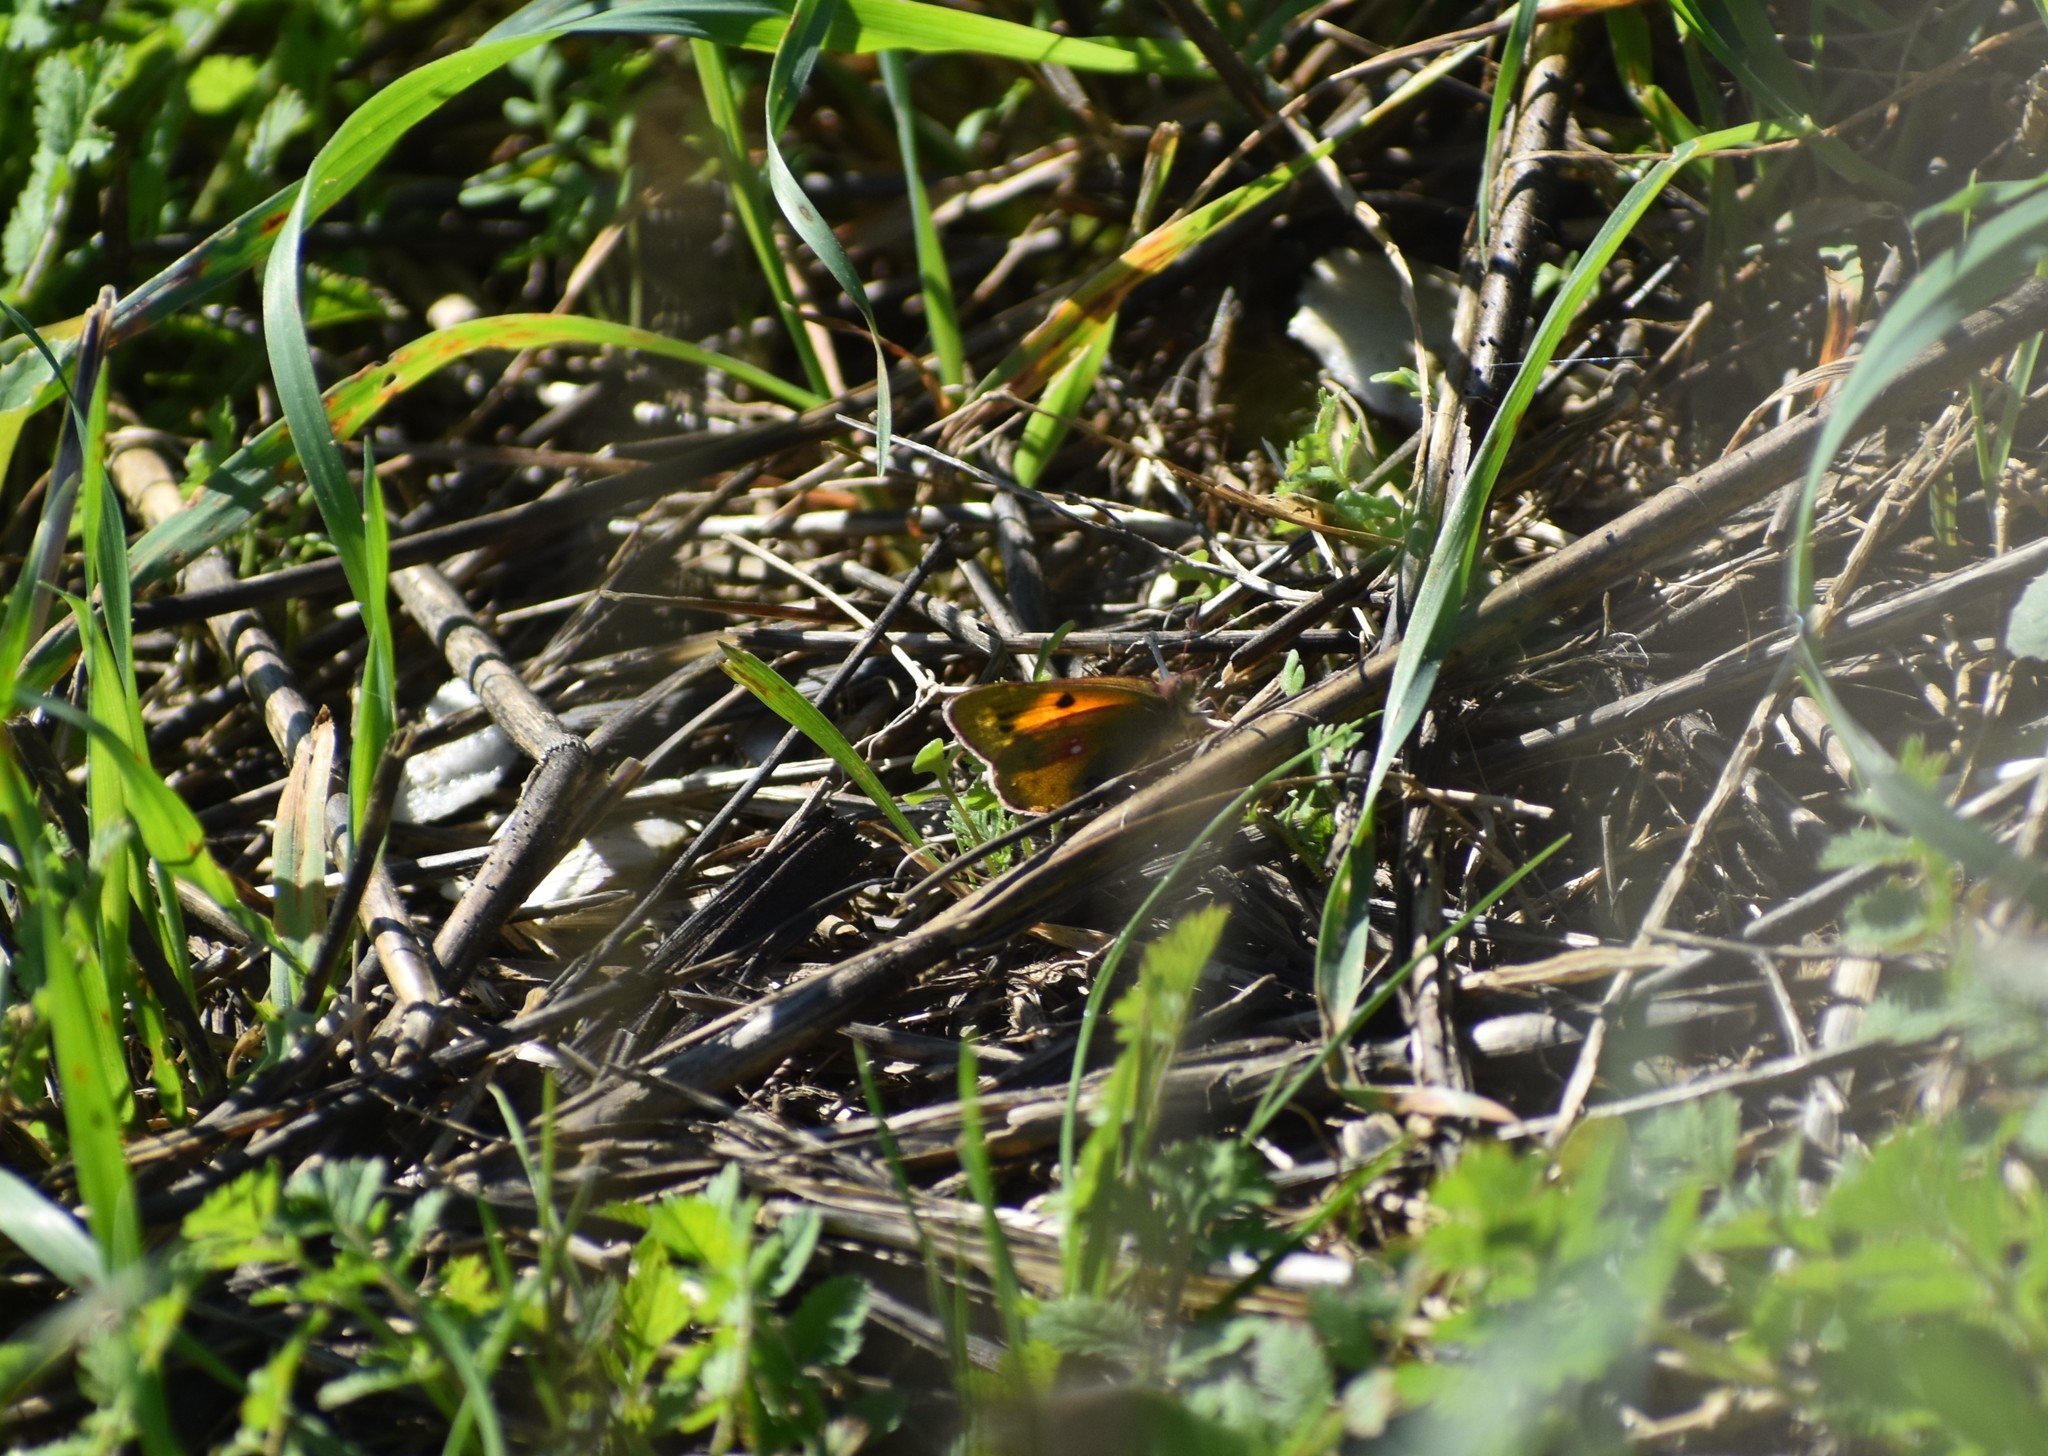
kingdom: Animalia
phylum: Arthropoda
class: Insecta
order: Lepidoptera
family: Pieridae
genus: Colias
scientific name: Colias electo
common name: African clouded yellow
